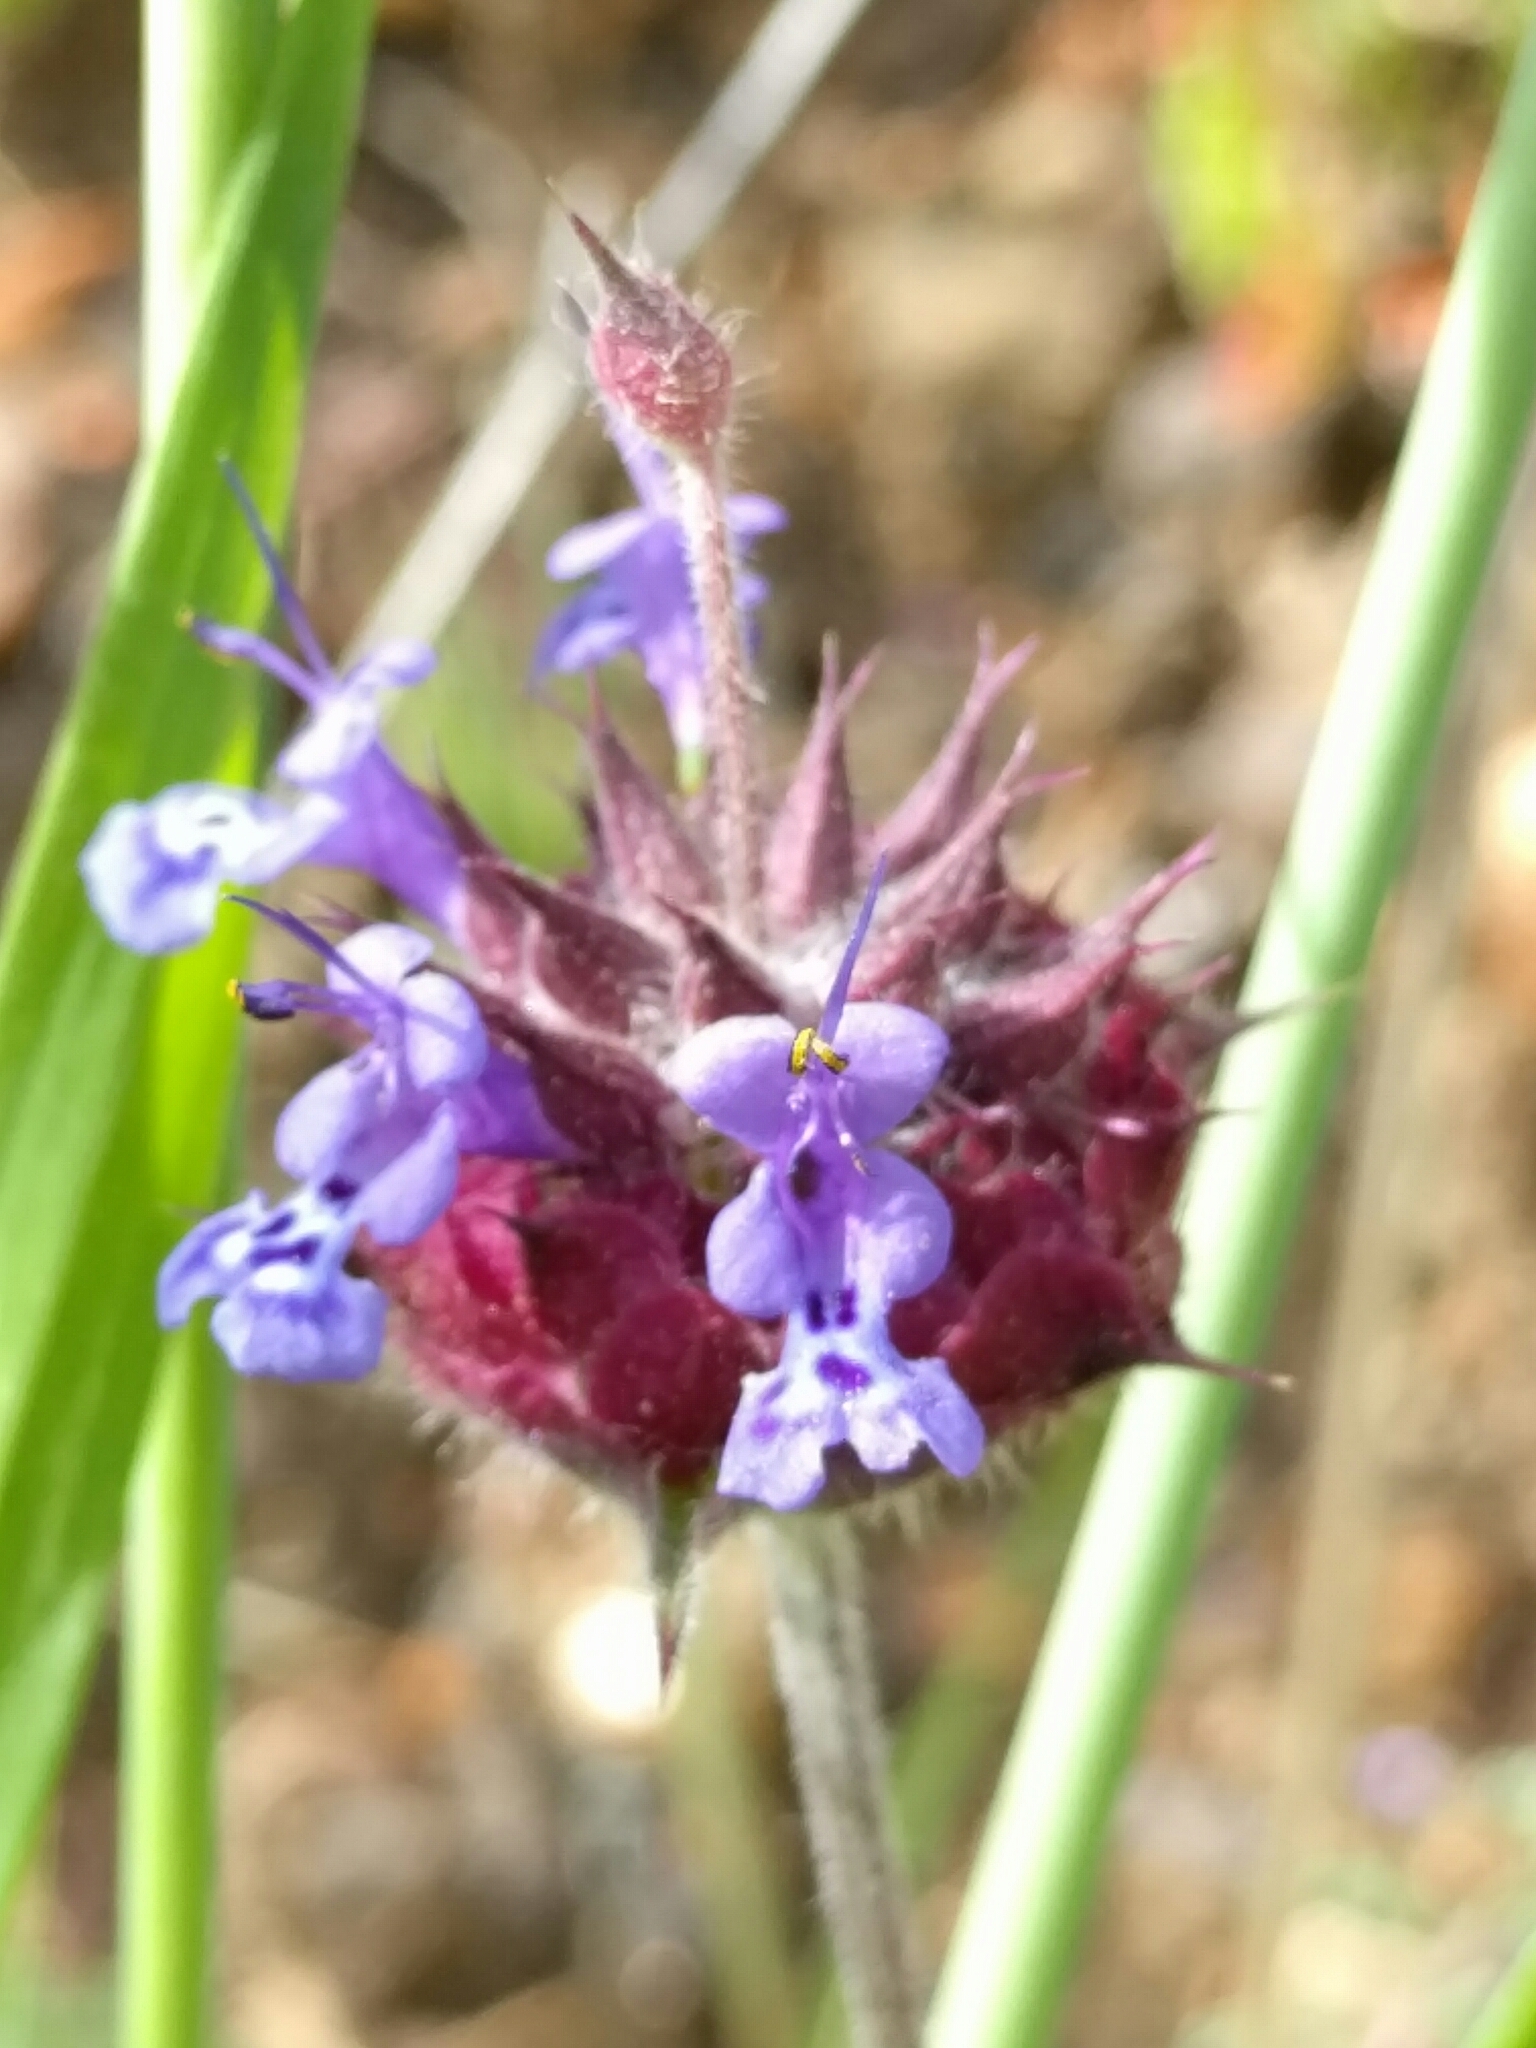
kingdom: Plantae
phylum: Tracheophyta
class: Magnoliopsida
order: Lamiales
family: Lamiaceae
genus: Salvia
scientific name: Salvia columbariae
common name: Chia
